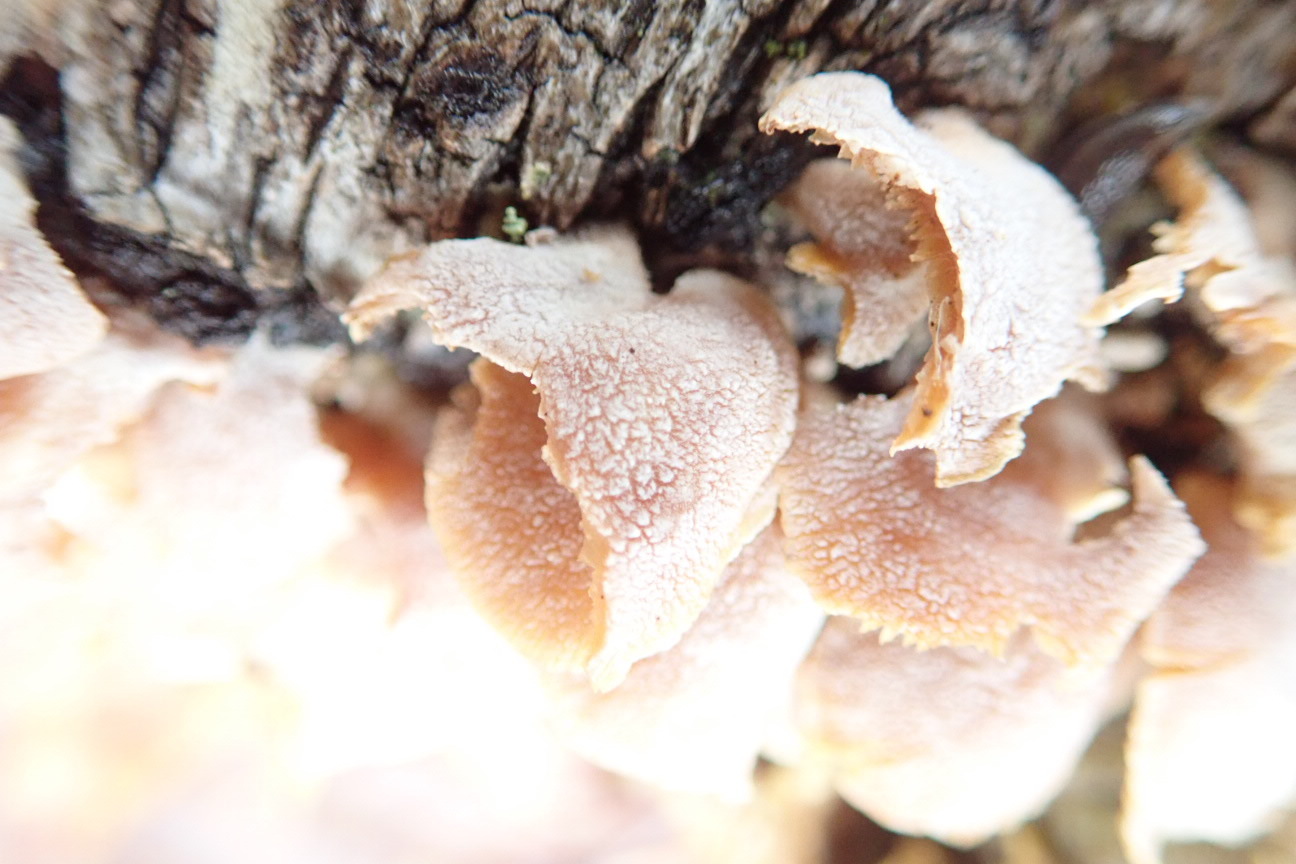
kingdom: Fungi
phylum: Basidiomycota
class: Agaricomycetes
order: Agaricales
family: Mycenaceae
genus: Panellus
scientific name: Panellus stipticus
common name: Bitter oysterling
